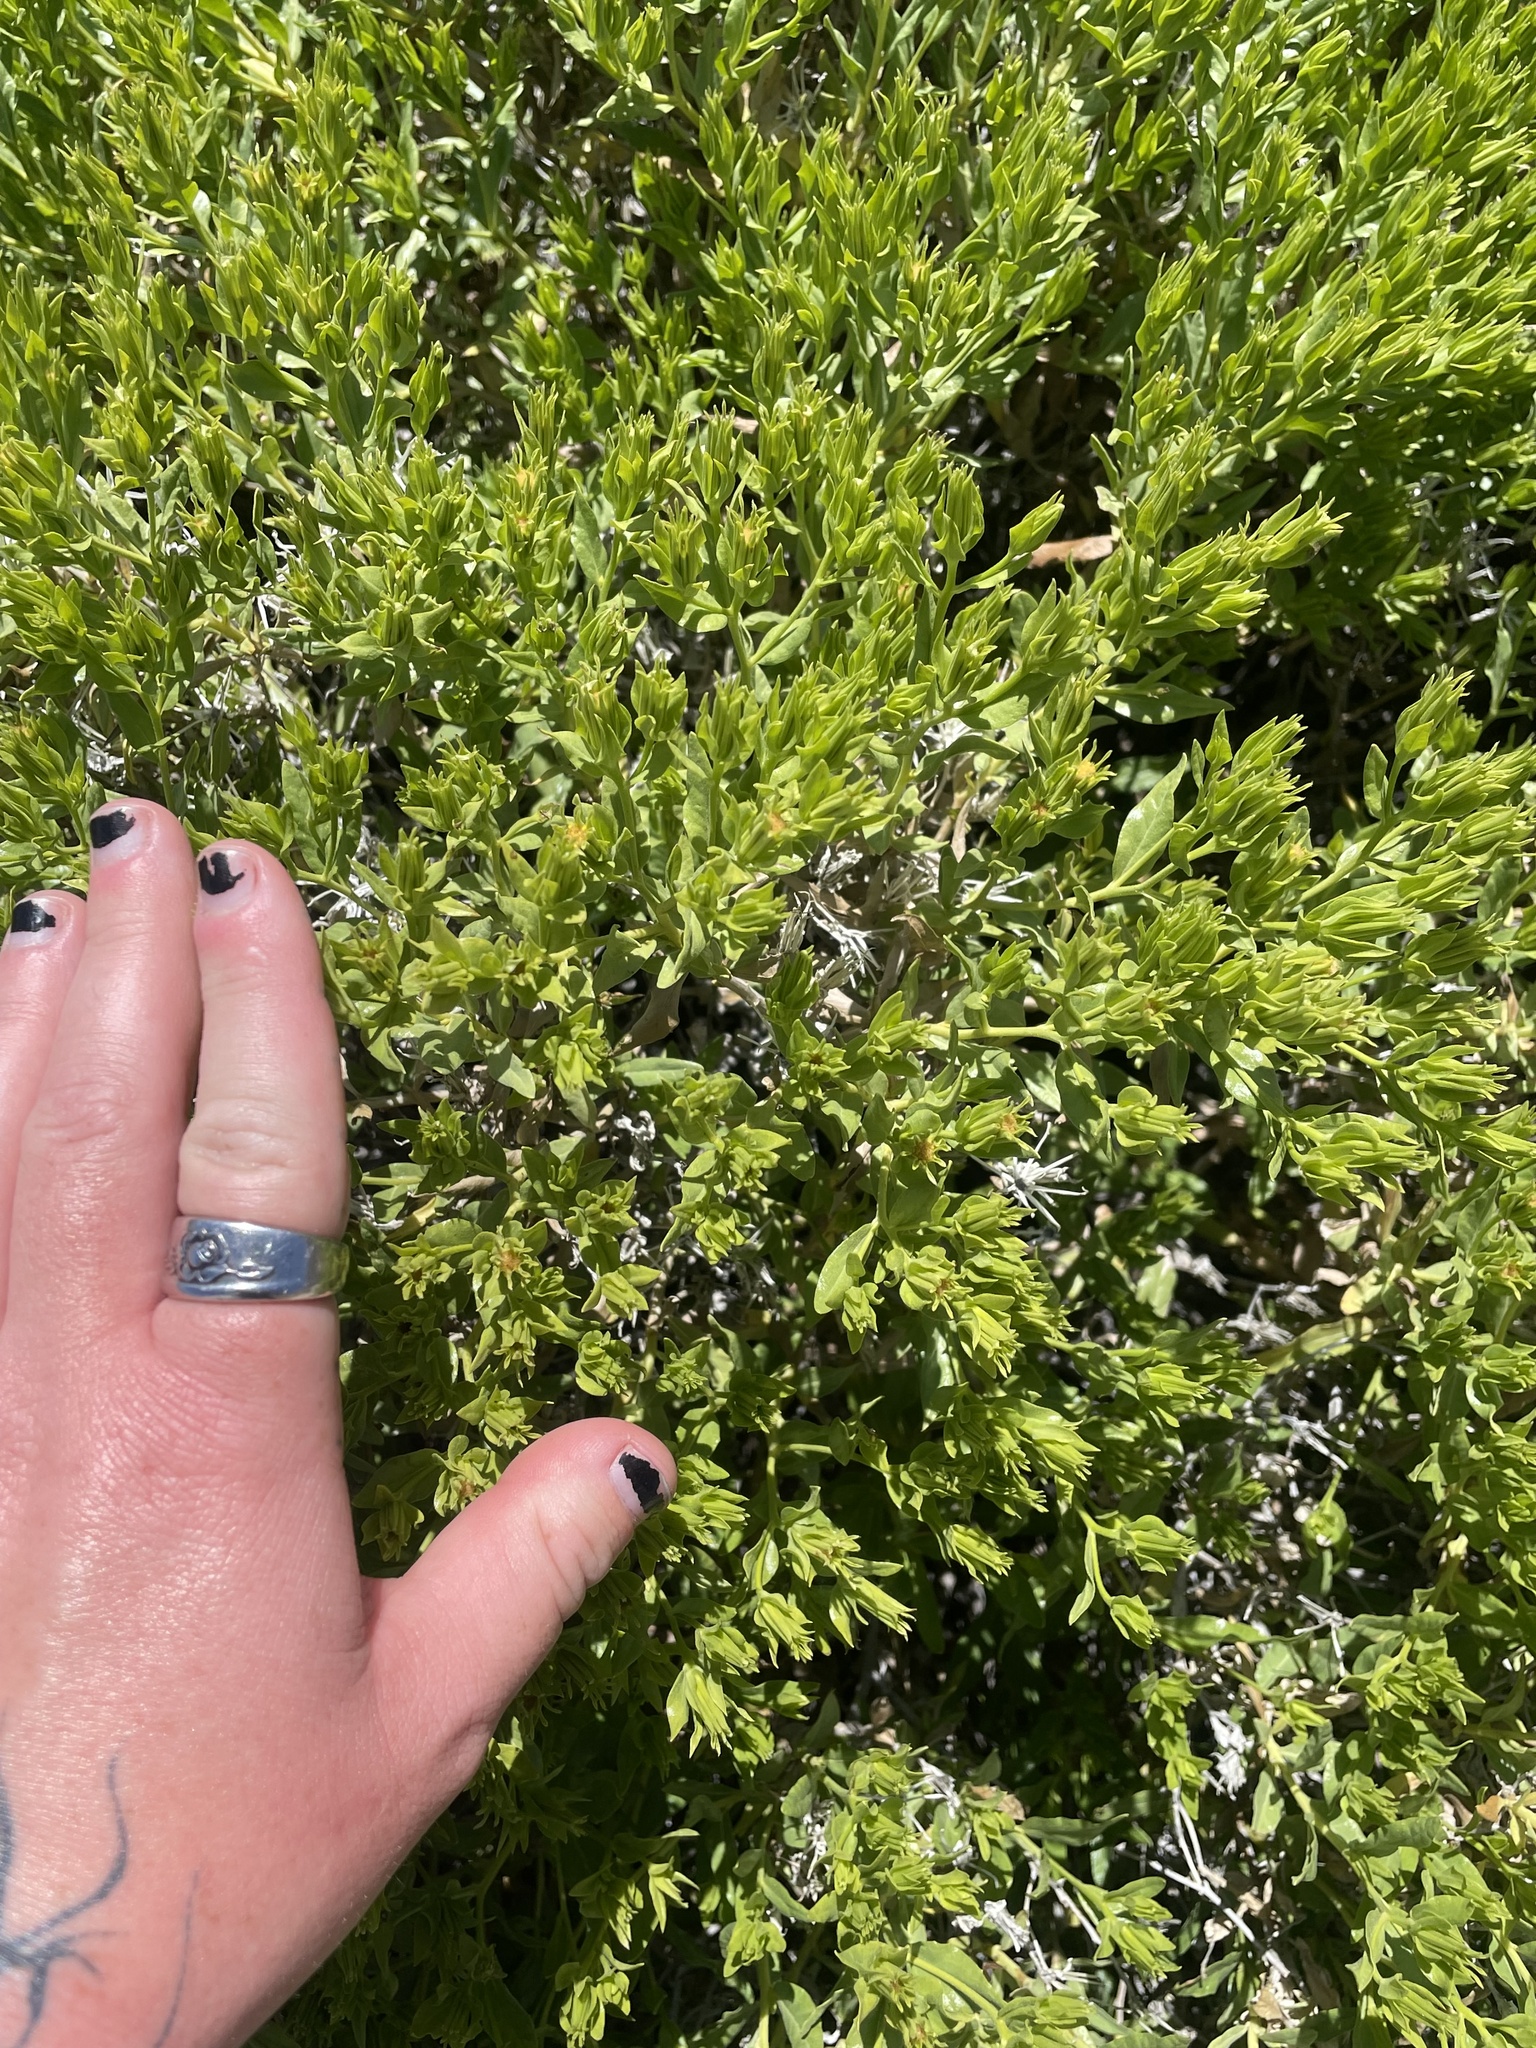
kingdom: Plantae
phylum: Tracheophyta
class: Magnoliopsida
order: Asterales
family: Asteraceae
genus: Trixis
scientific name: Trixis californica
